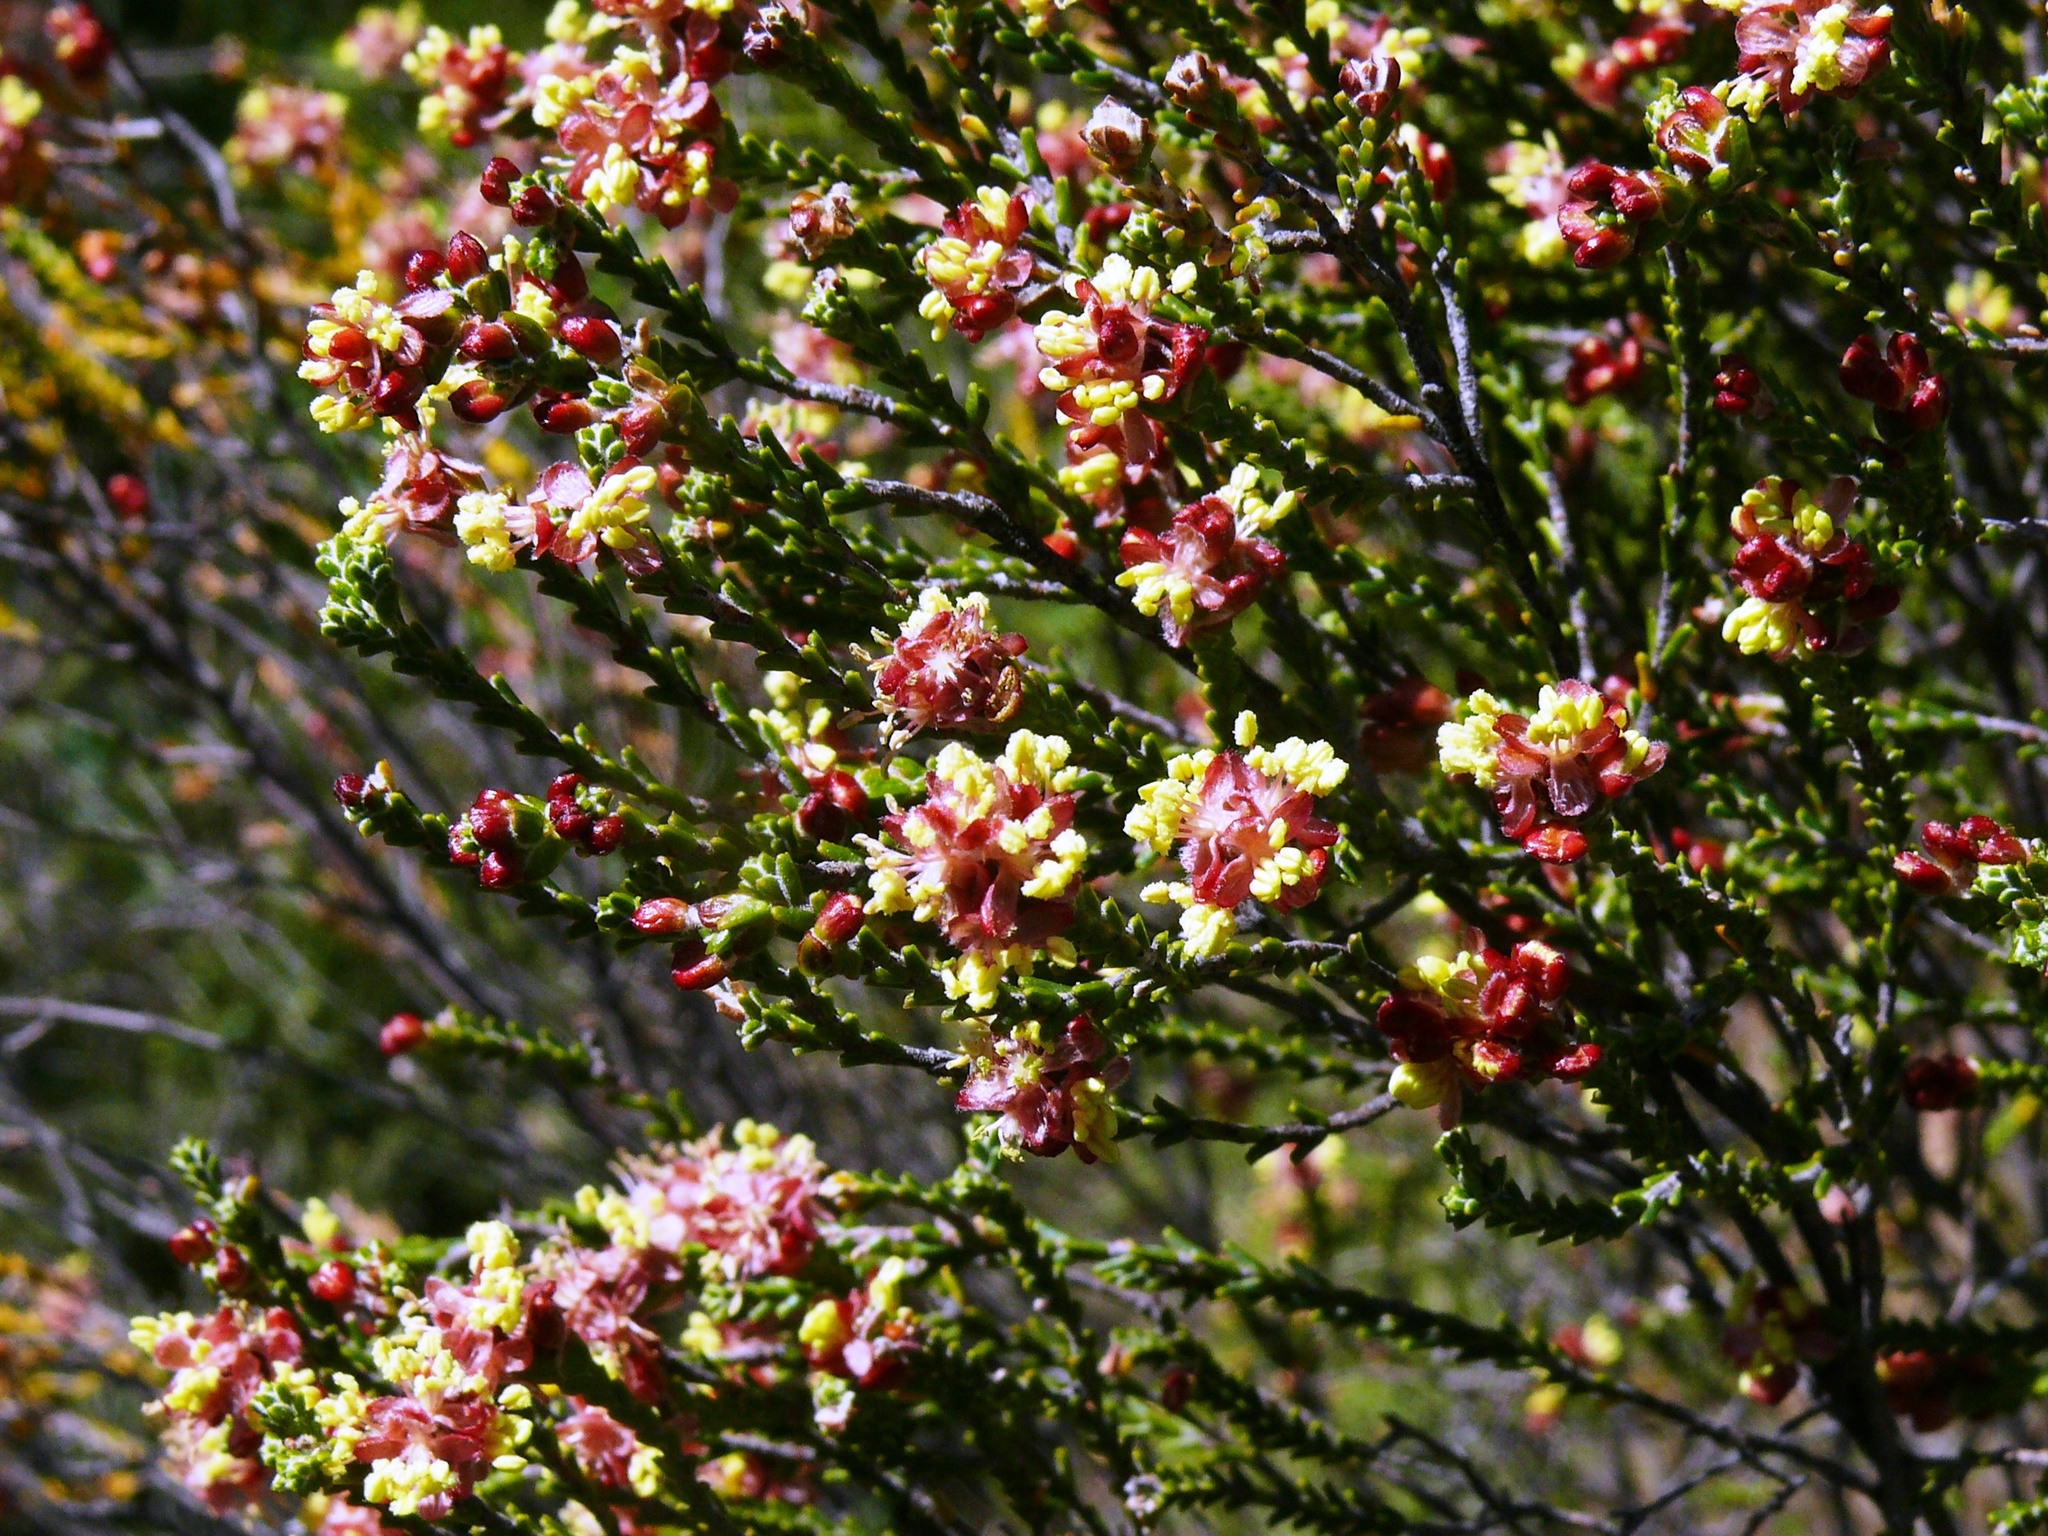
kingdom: Plantae
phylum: Tracheophyta
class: Magnoliopsida
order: Malvales
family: Thymelaeaceae
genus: Passerina
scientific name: Passerina truncata
